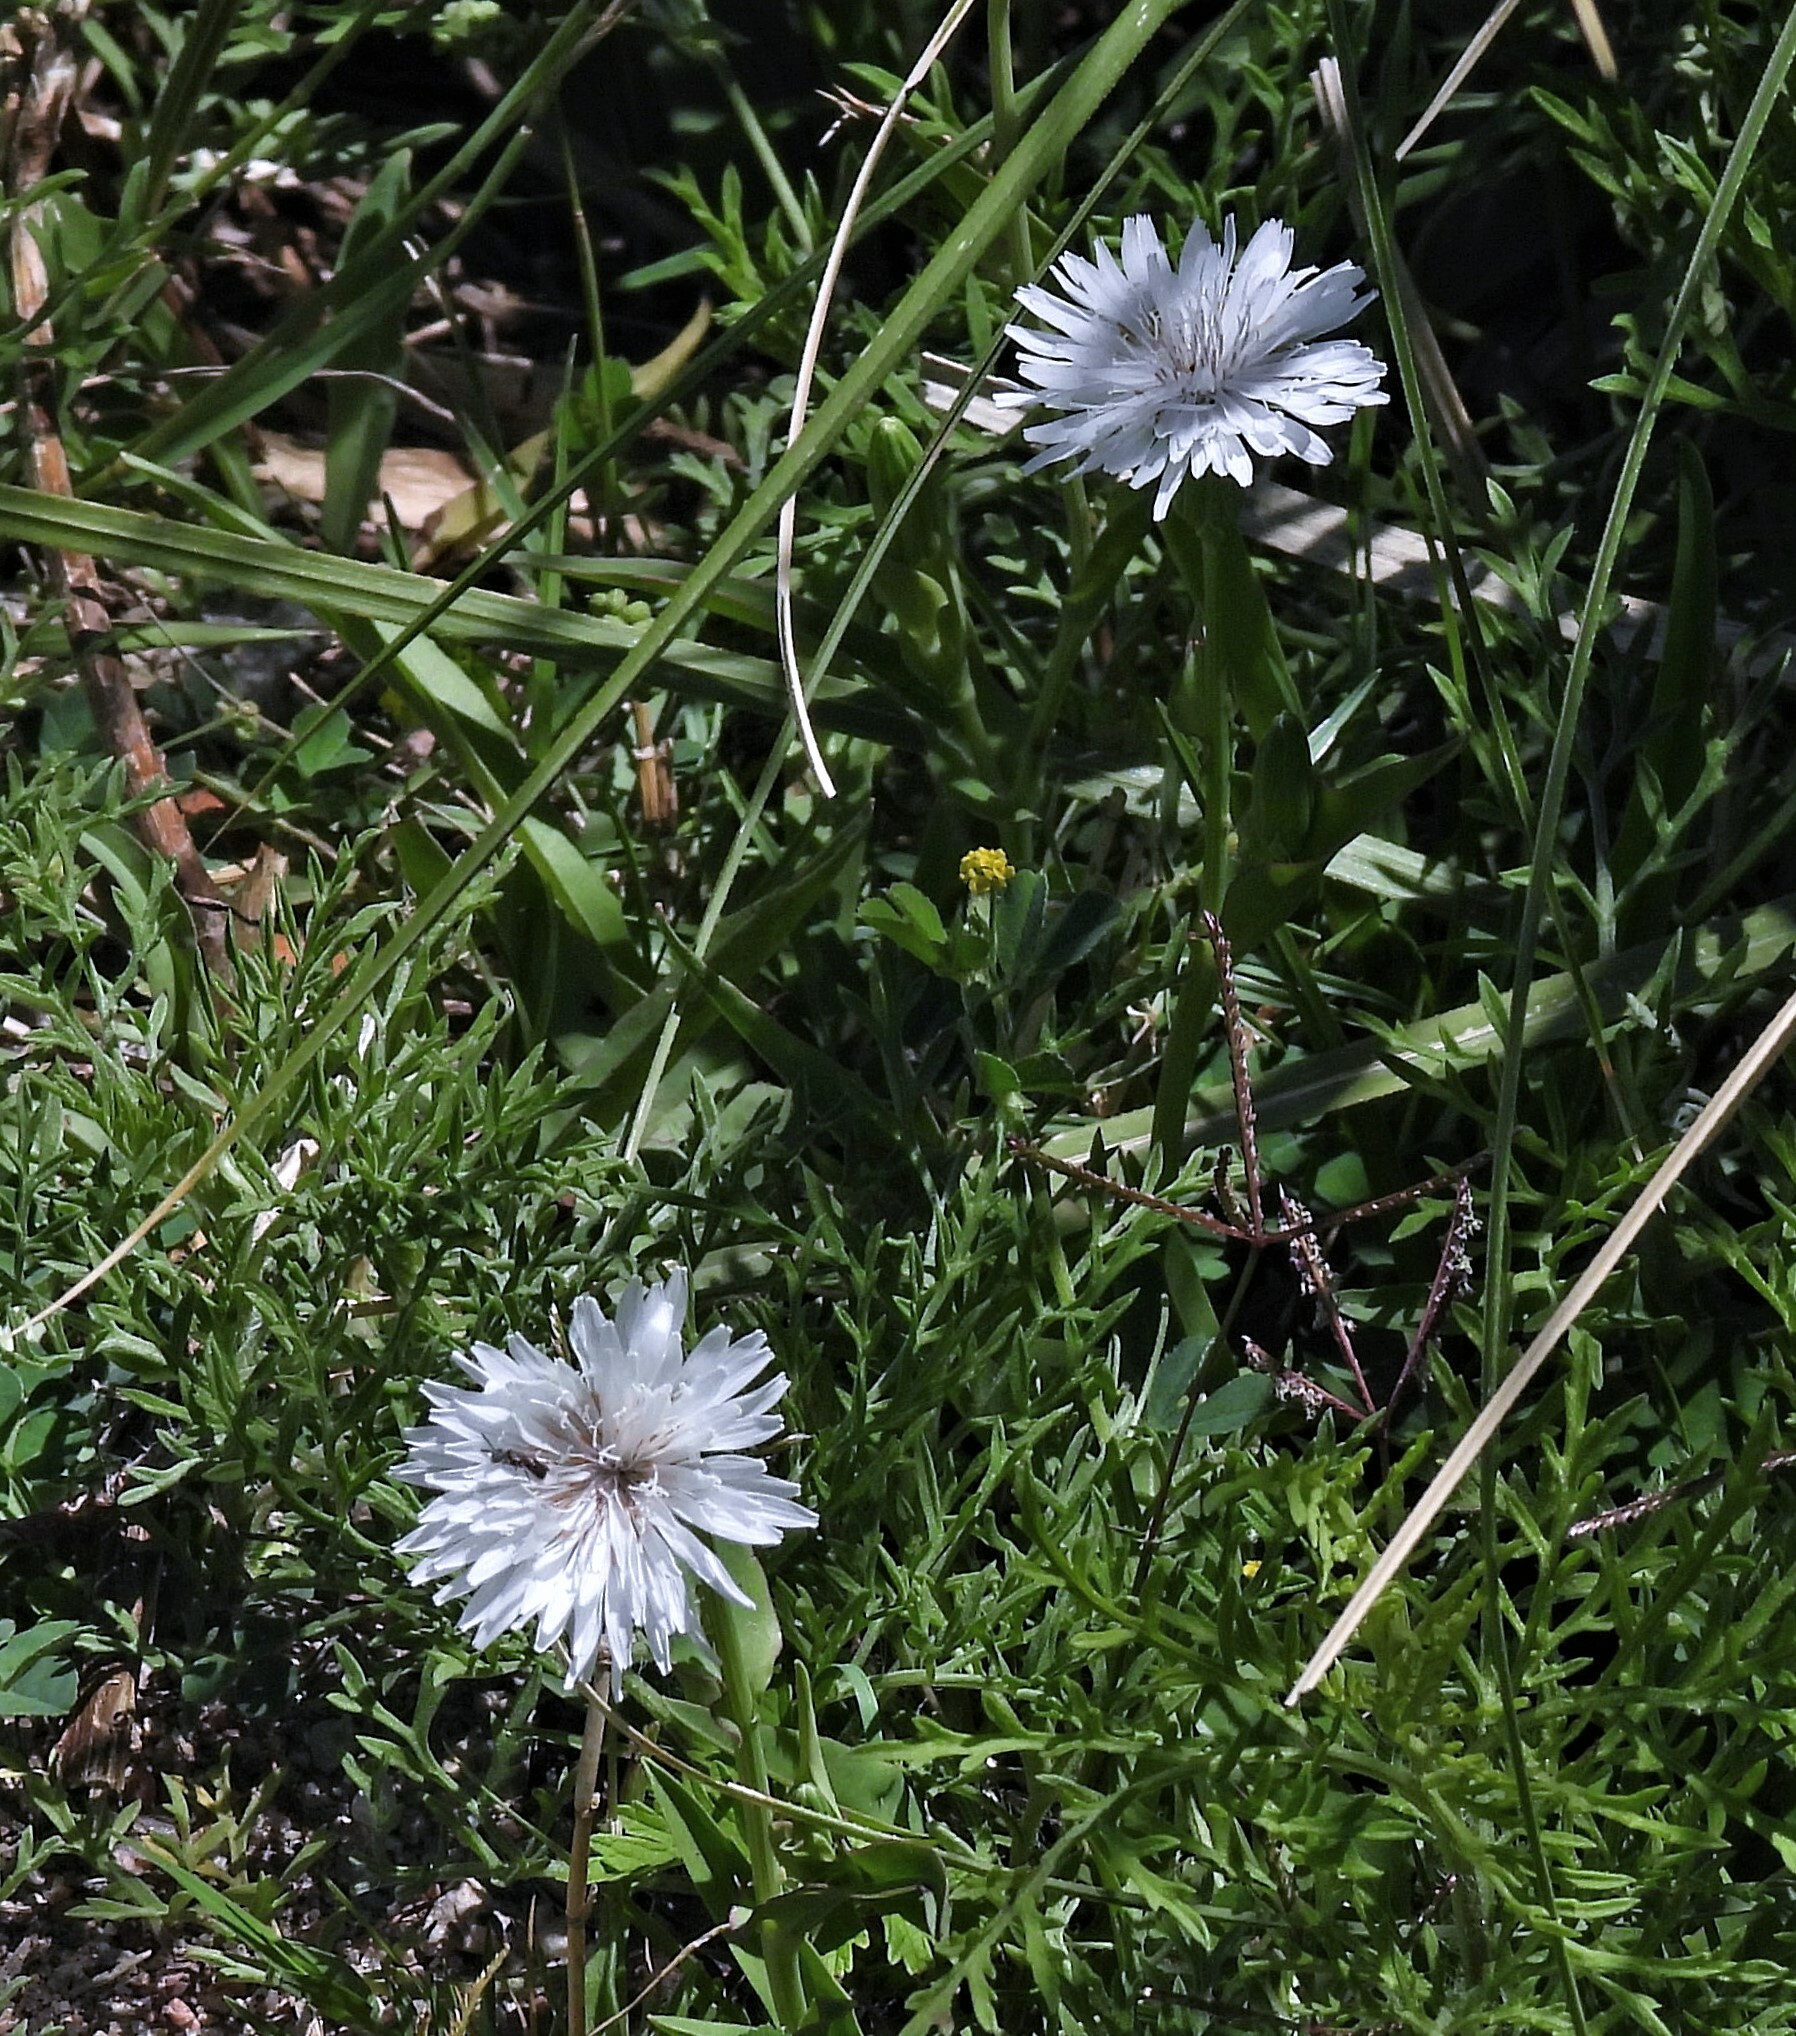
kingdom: Plantae
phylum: Tracheophyta
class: Magnoliopsida
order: Asterales
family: Asteraceae
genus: Picrosia
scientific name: Picrosia longifolia
